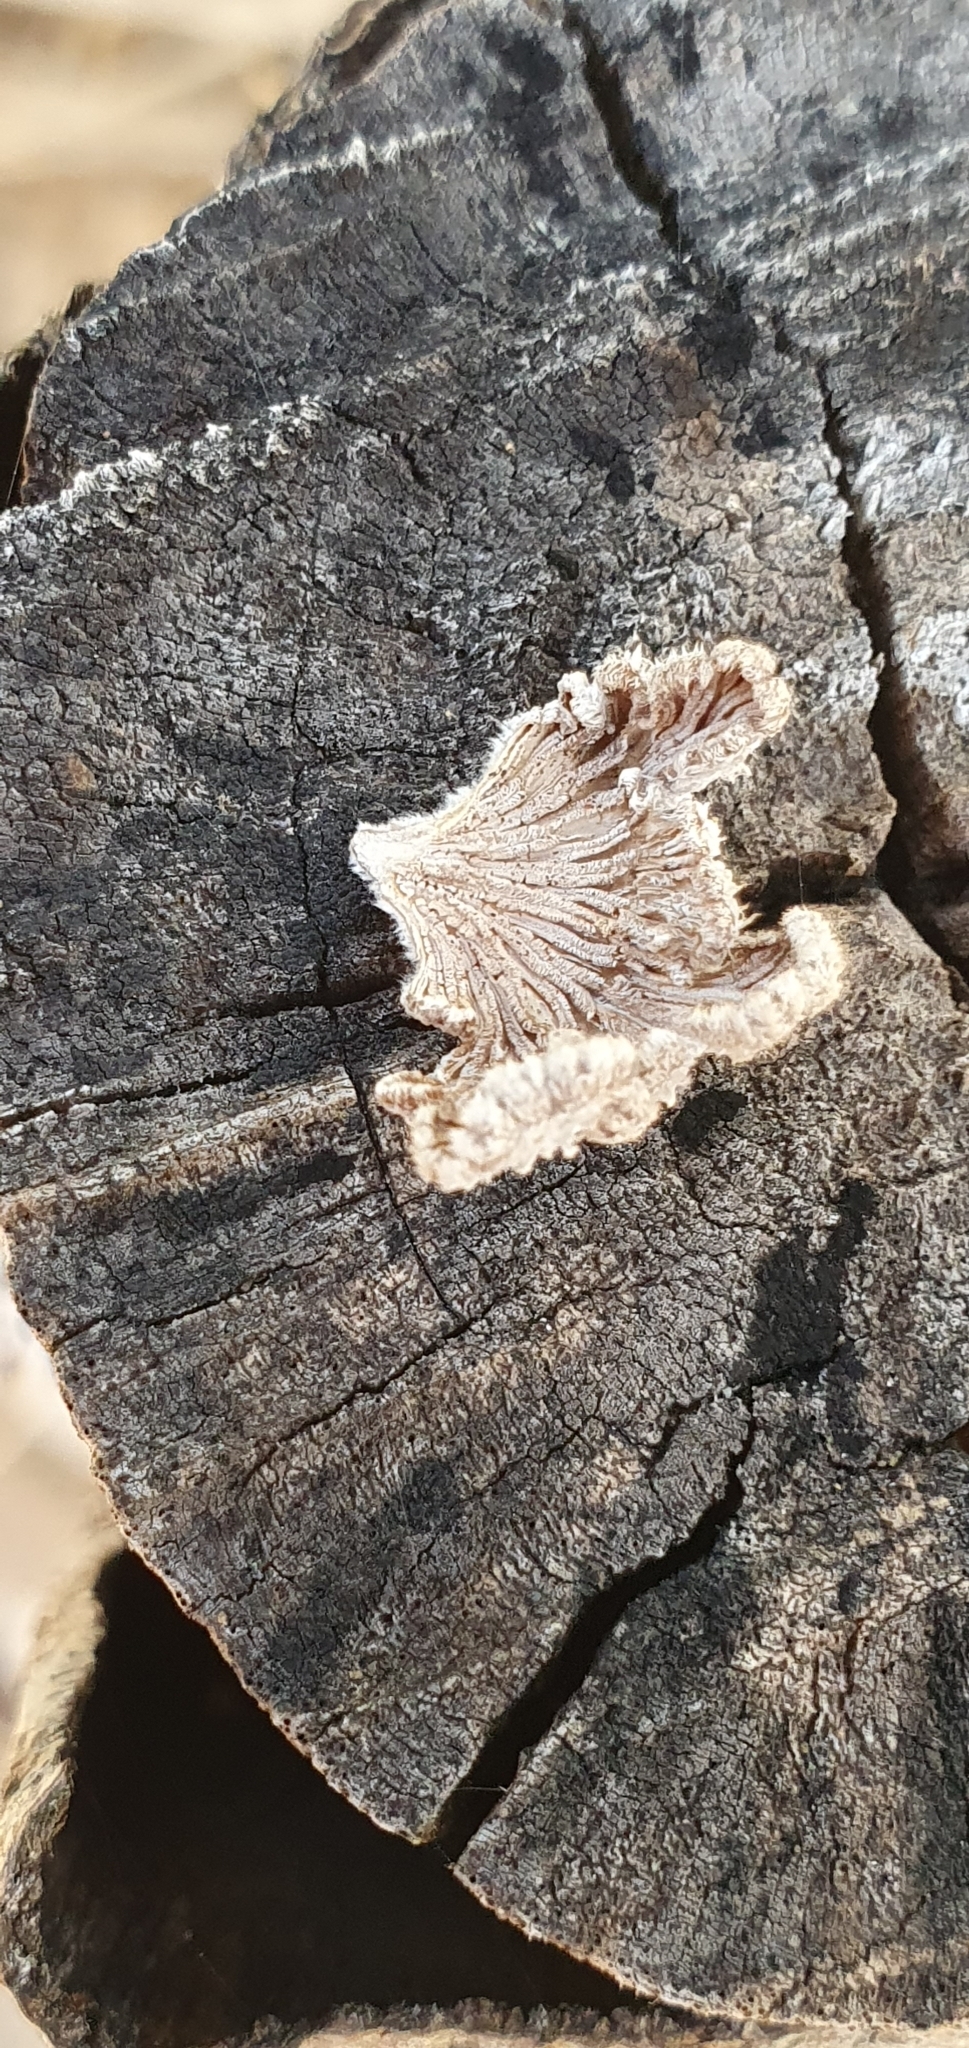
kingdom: Fungi
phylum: Basidiomycota
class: Agaricomycetes
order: Agaricales
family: Schizophyllaceae
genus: Schizophyllum
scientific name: Schizophyllum commune
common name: Common porecrust
